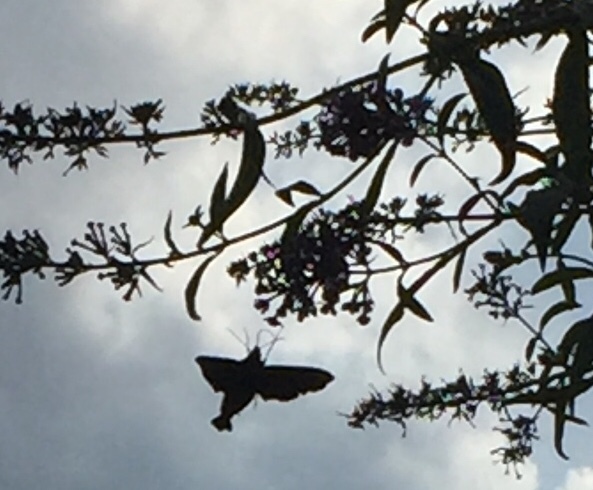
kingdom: Animalia
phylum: Arthropoda
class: Insecta
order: Lepidoptera
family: Sphingidae
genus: Amphion
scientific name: Amphion floridensis
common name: Nessus sphinx
